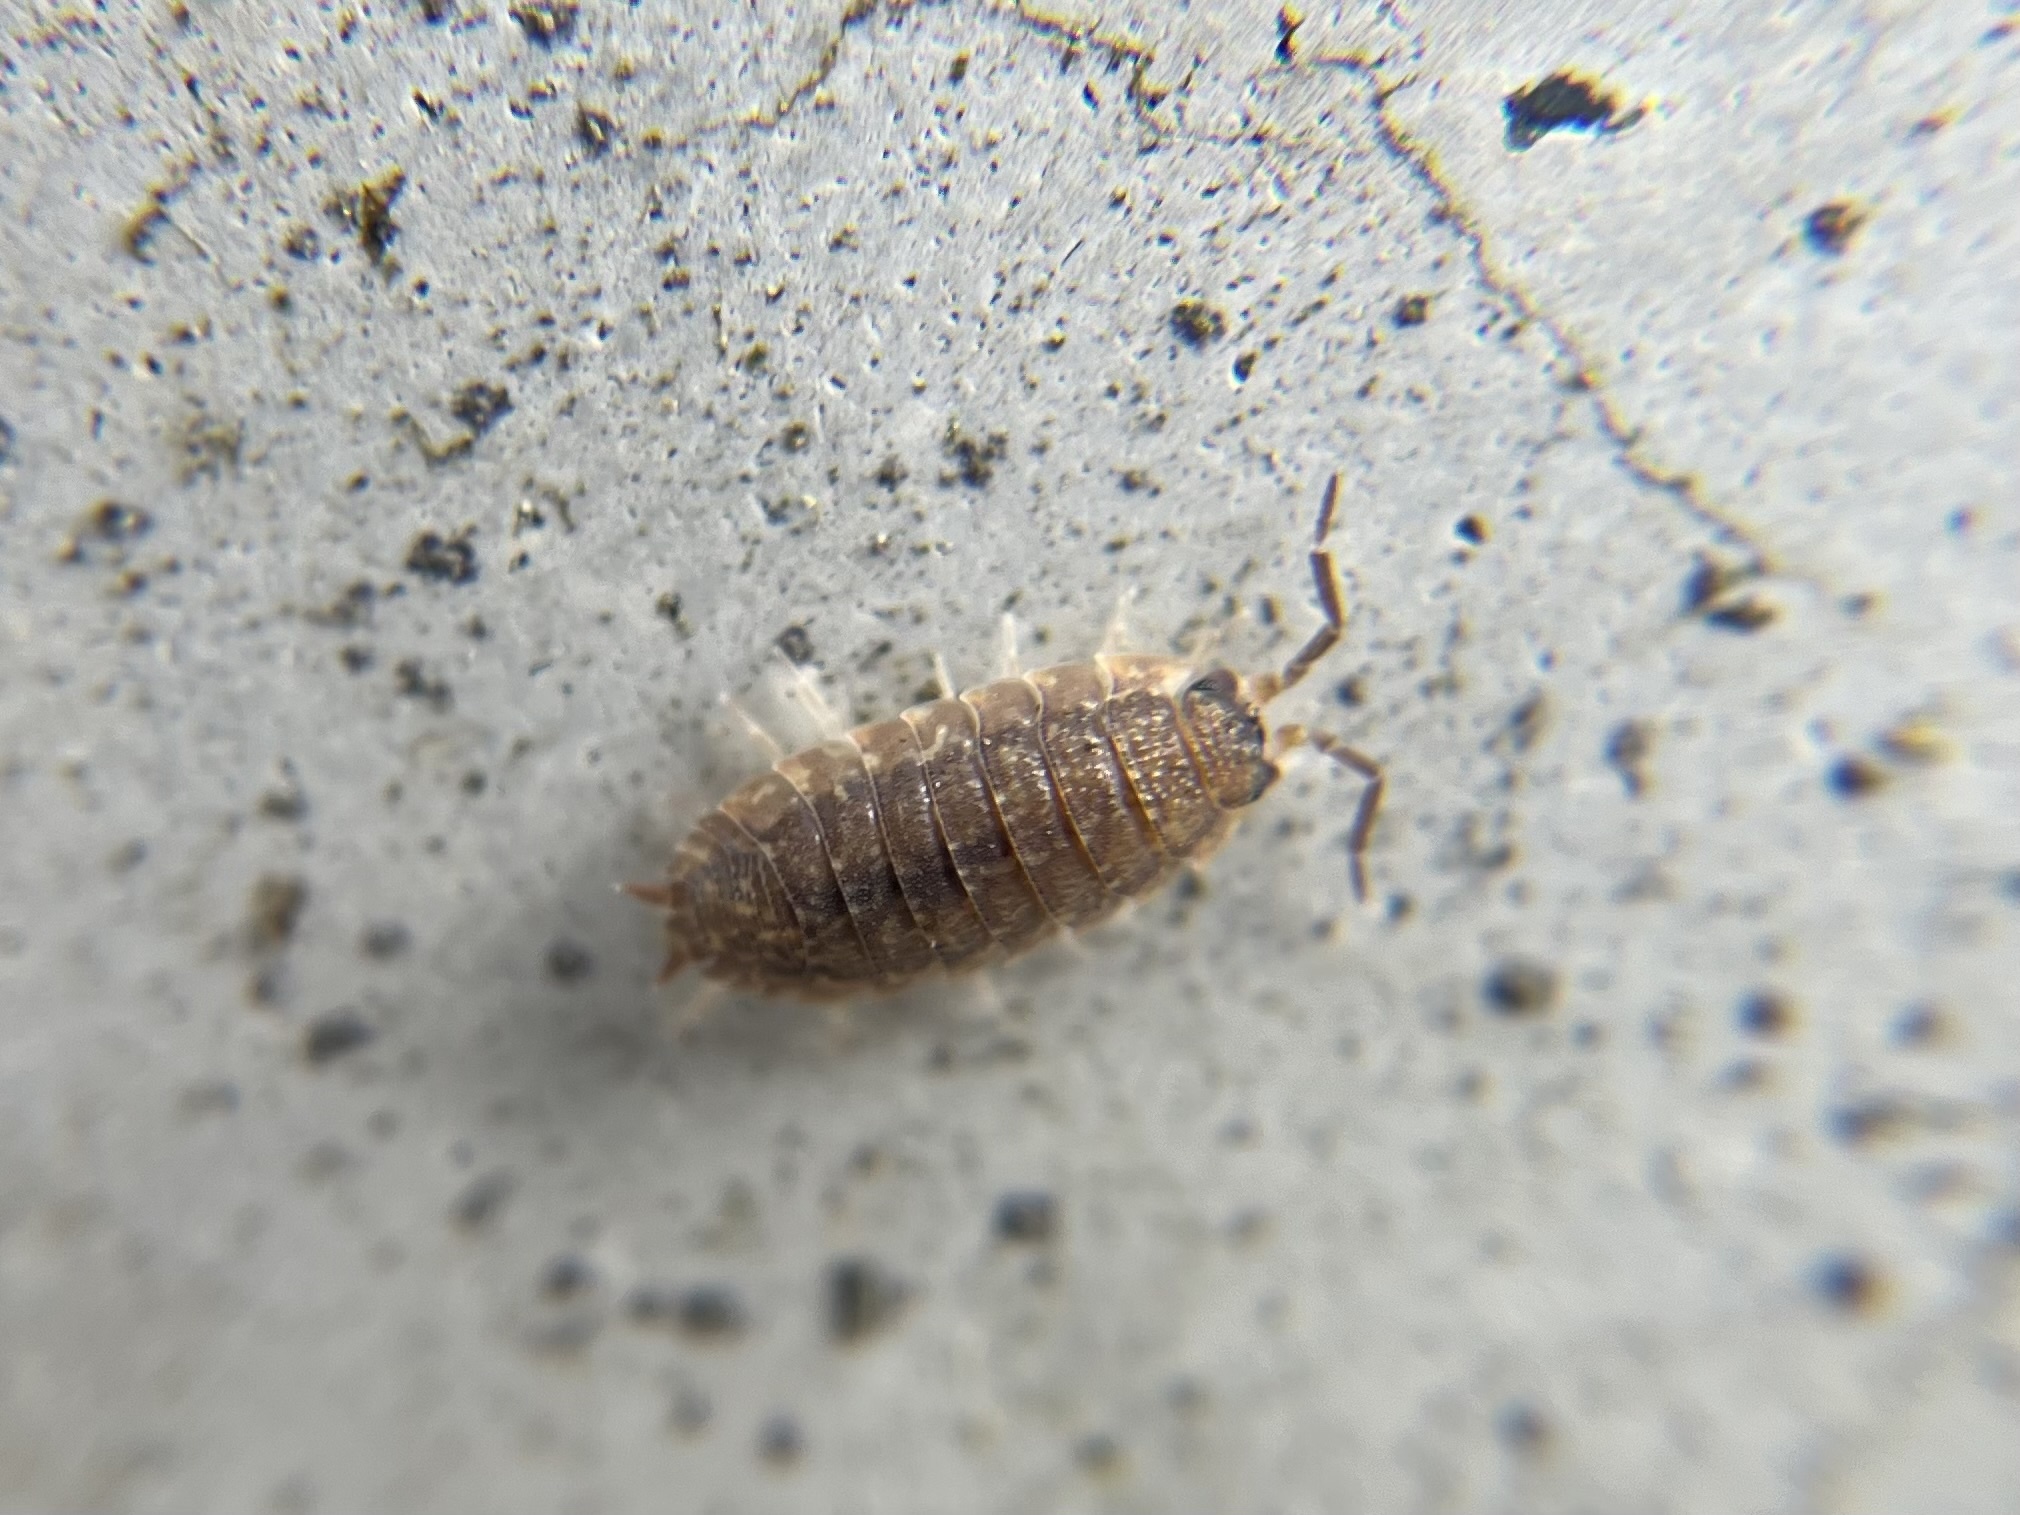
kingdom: Animalia
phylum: Arthropoda
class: Malacostraca
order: Isopoda
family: Porcellionidae
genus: Porcellio
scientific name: Porcellio scaber
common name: Common rough woodlouse
